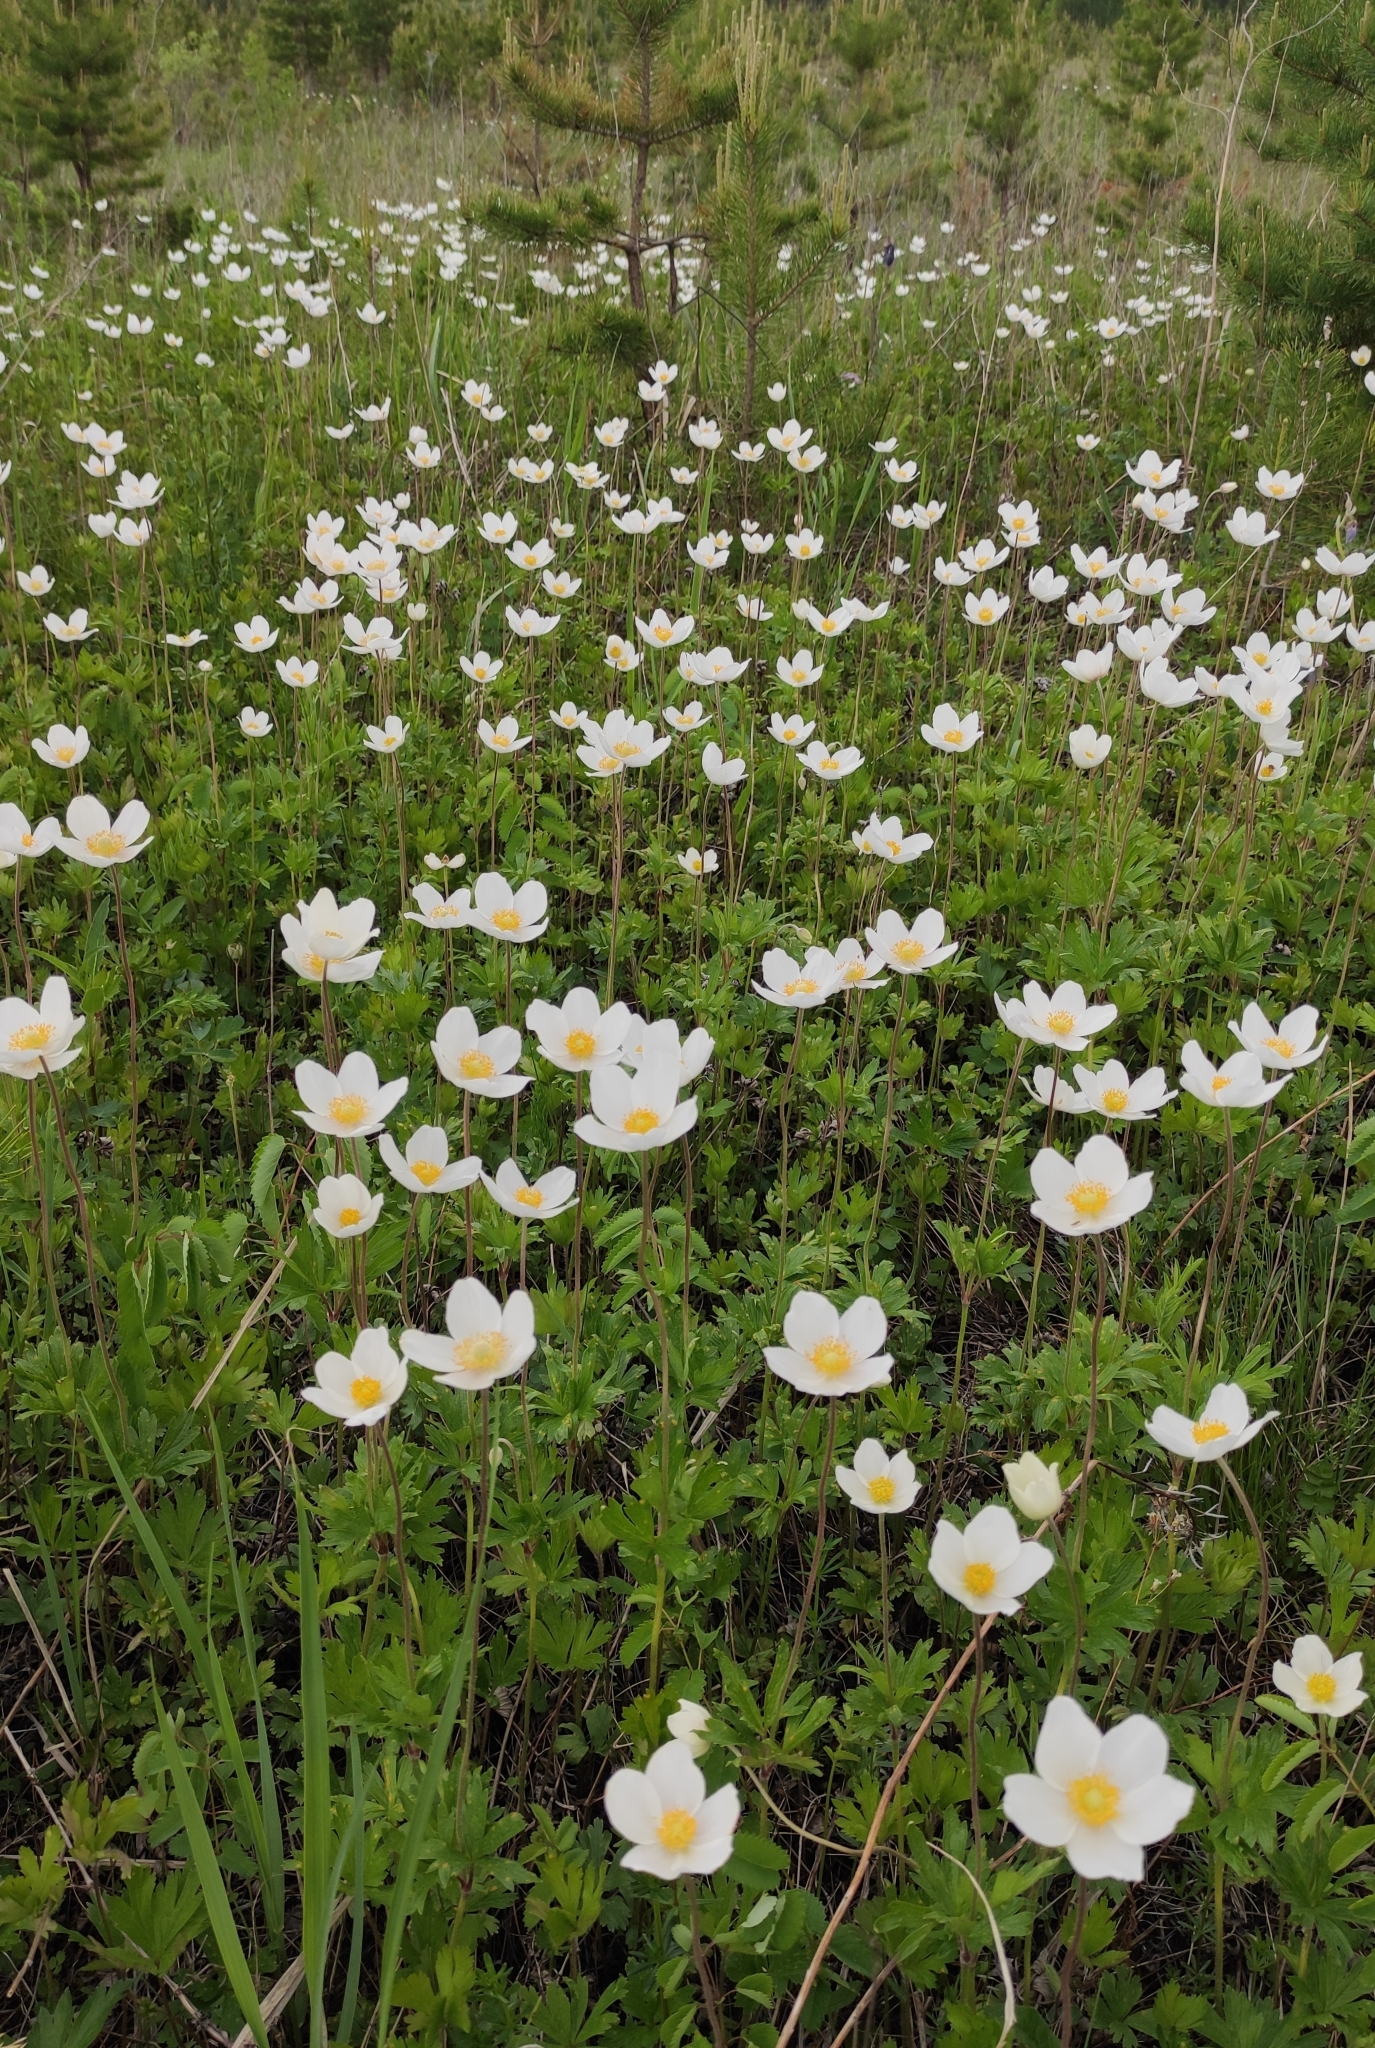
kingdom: Plantae
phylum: Tracheophyta
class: Magnoliopsida
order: Ranunculales
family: Ranunculaceae
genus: Anemone
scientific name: Anemone sylvestris
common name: Snowdrop anemone
